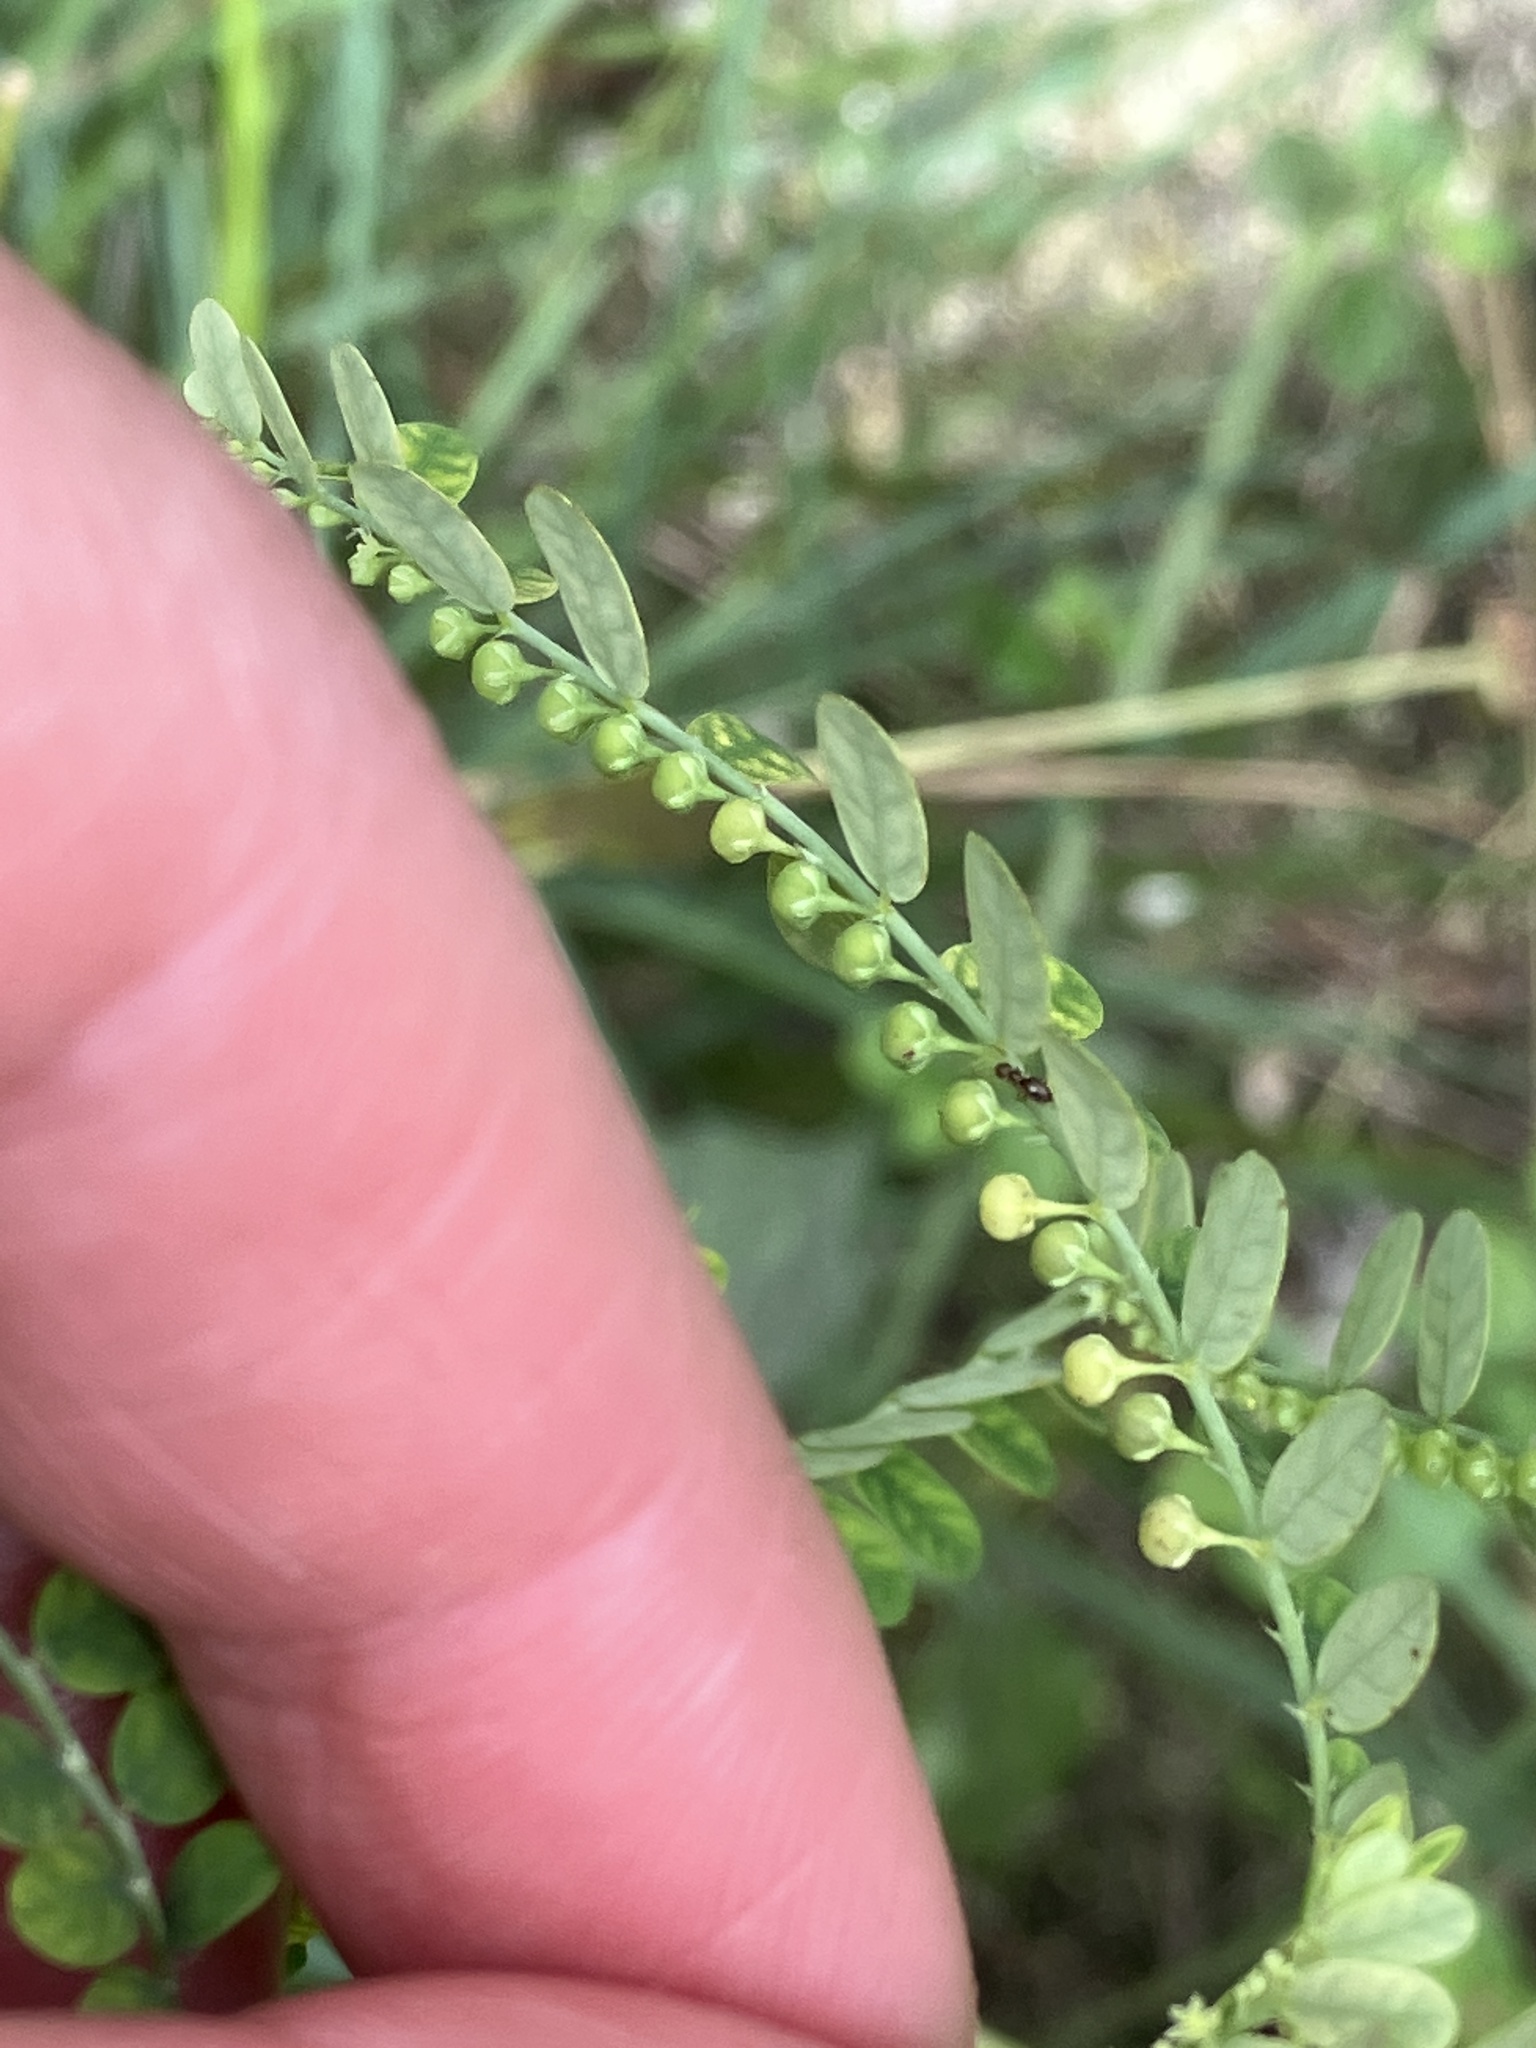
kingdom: Plantae
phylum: Tracheophyta
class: Magnoliopsida
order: Malpighiales
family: Phyllanthaceae
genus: Phyllanthus
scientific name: Phyllanthus amarus
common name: Carry me seed
